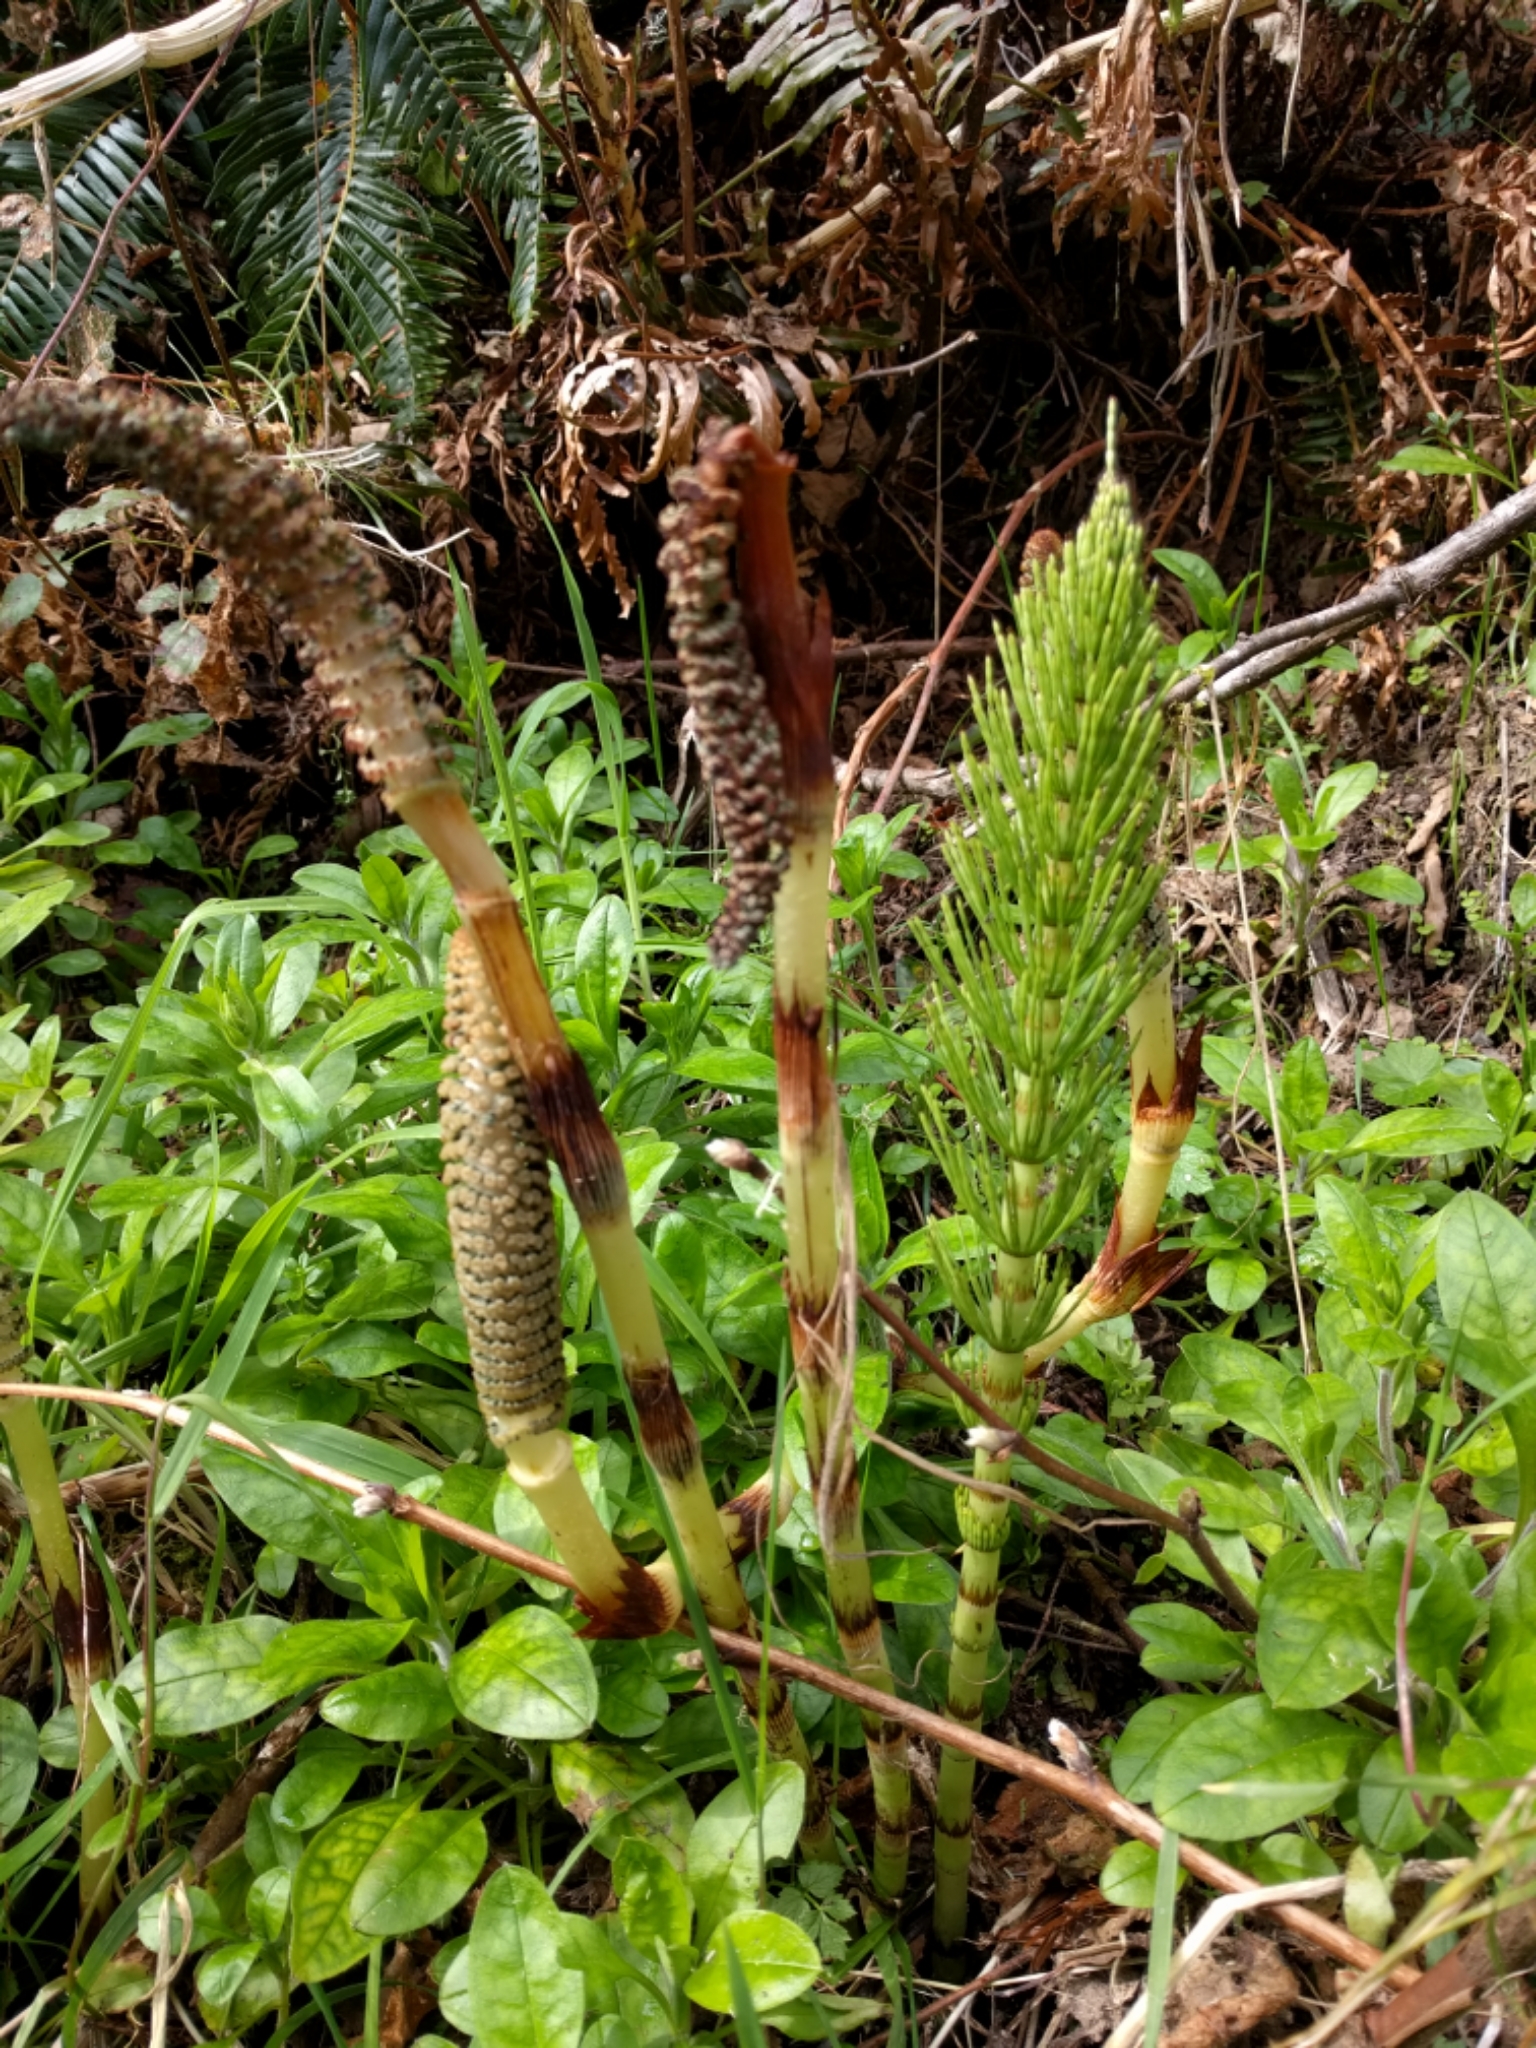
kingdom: Plantae
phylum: Tracheophyta
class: Polypodiopsida
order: Equisetales
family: Equisetaceae
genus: Equisetum
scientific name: Equisetum braunii
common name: Braun's horsetail
